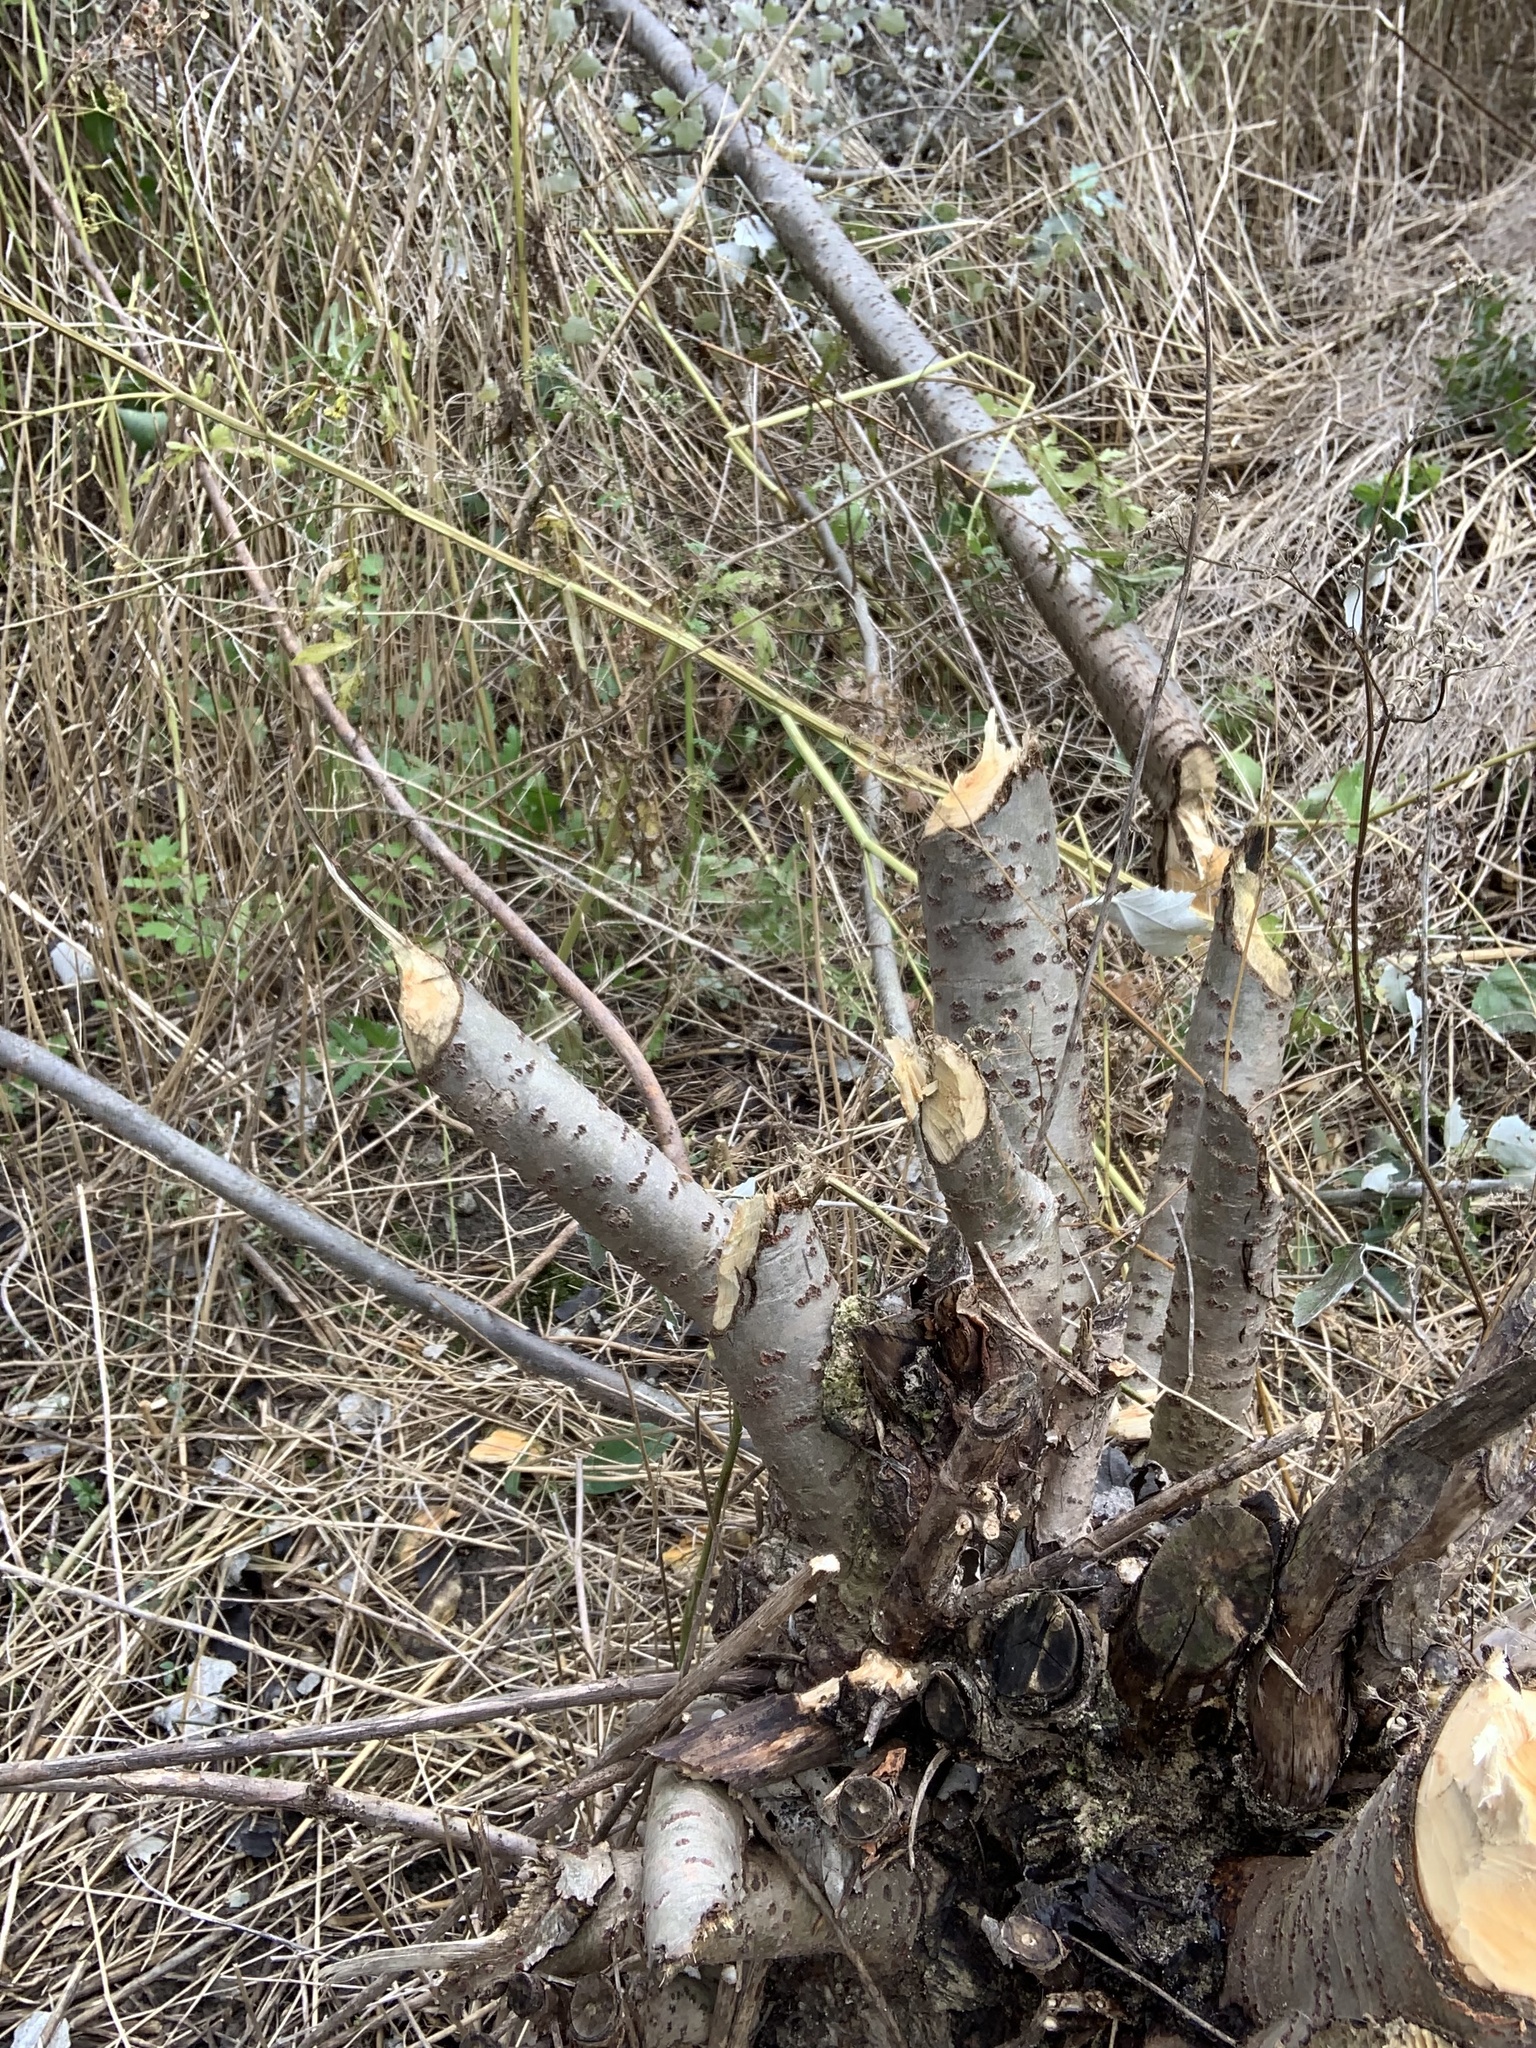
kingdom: Animalia
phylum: Chordata
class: Mammalia
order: Rodentia
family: Castoridae
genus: Castor
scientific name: Castor canadensis
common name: American beaver
